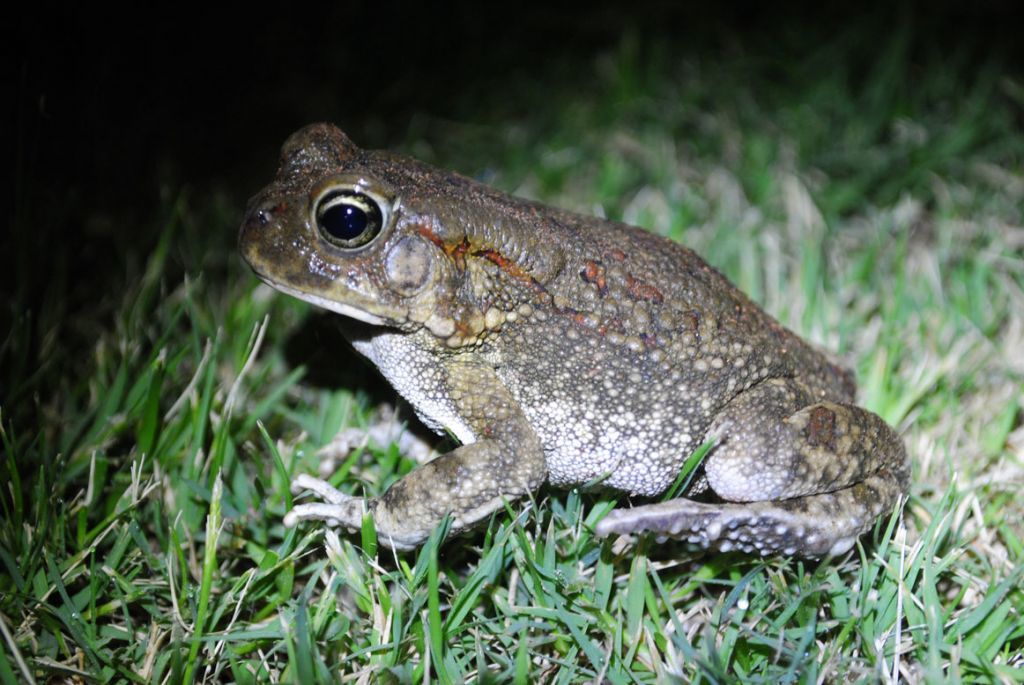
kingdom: Animalia
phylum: Chordata
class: Amphibia
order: Anura
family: Bufonidae
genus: Sclerophrys
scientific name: Sclerophrys garmani
